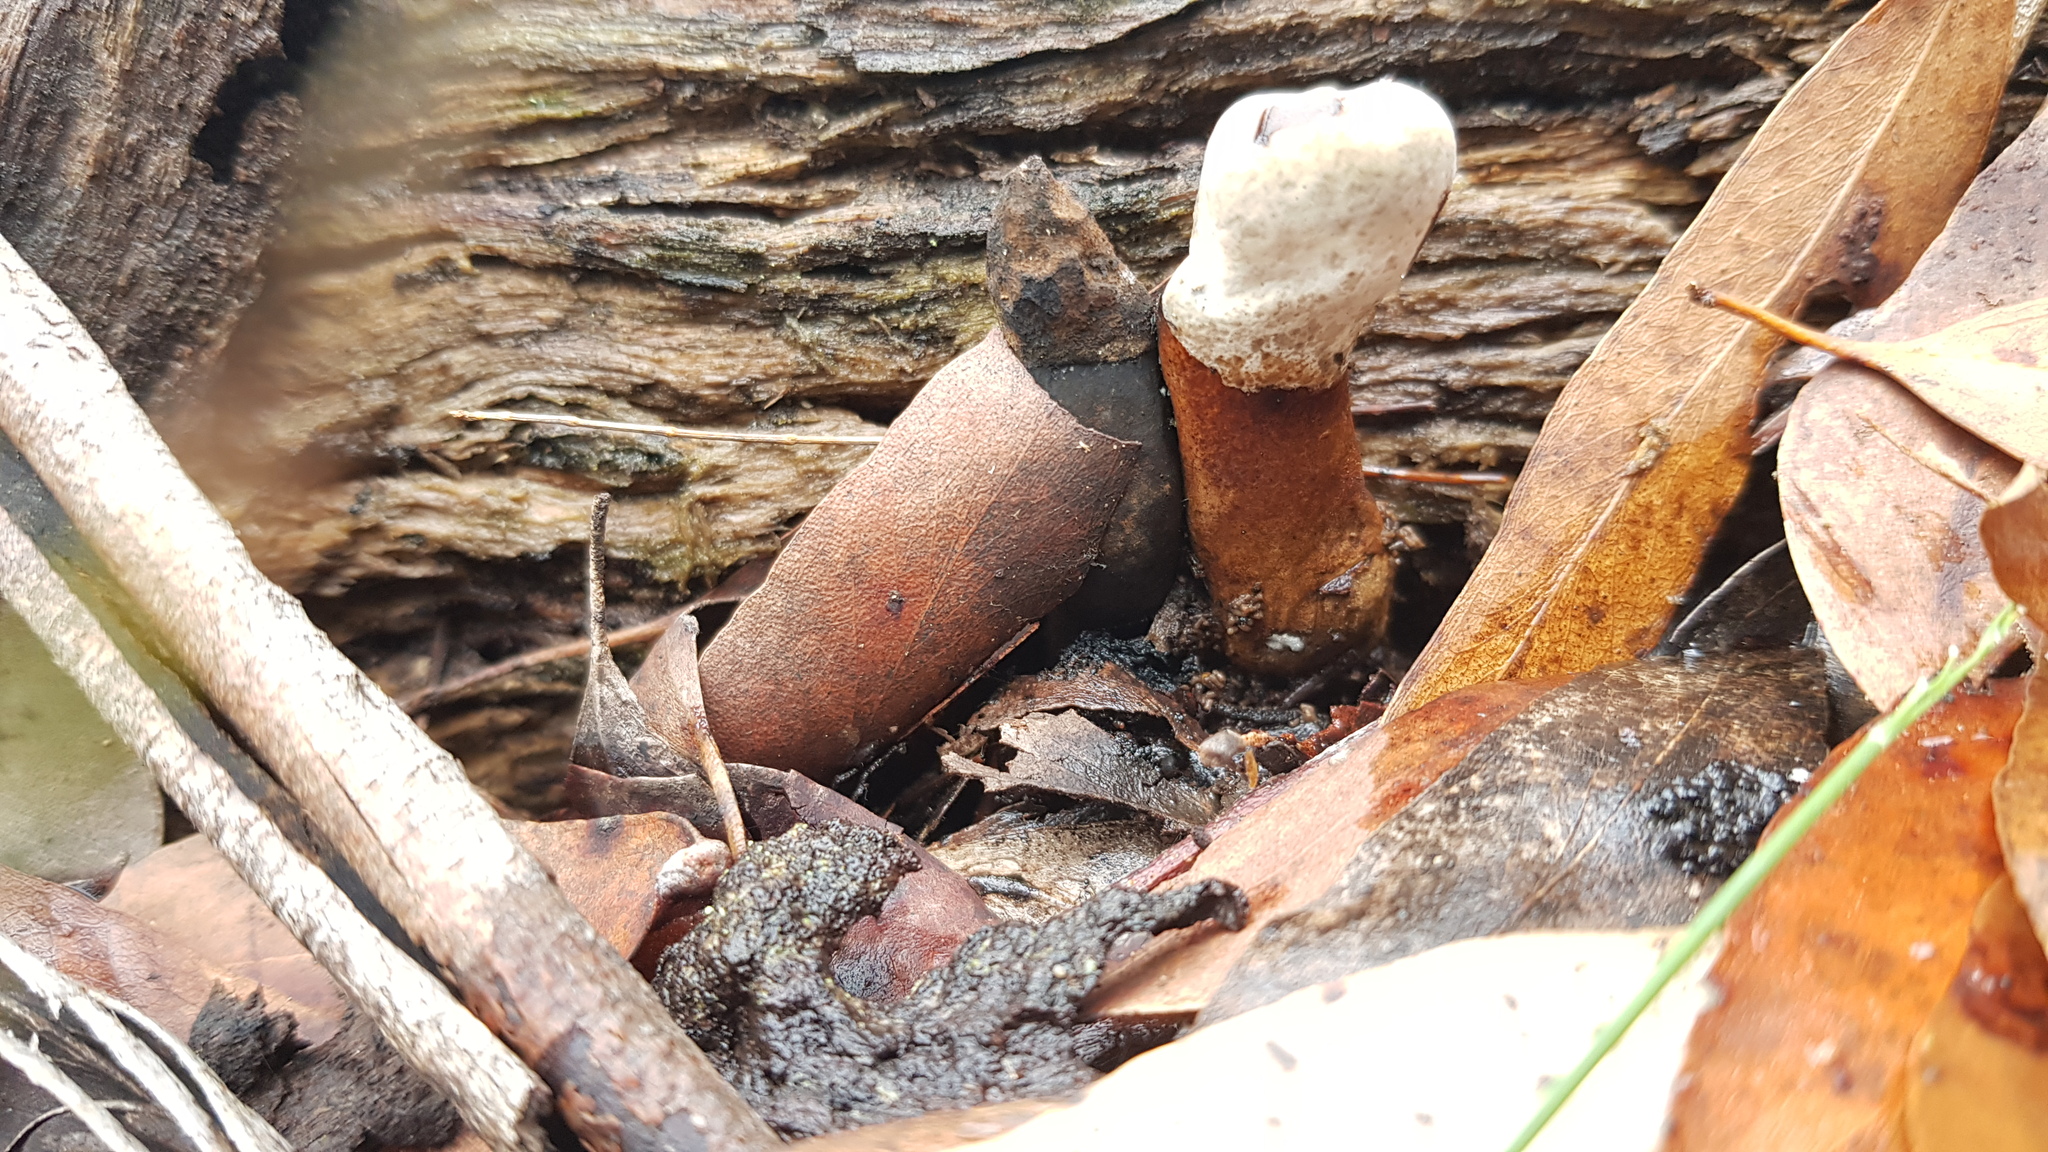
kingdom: Fungi
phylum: Basidiomycota
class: Agaricomycetes
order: Polyporales
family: Ganodermataceae
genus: Sanguinoderma
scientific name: Sanguinoderma rude
